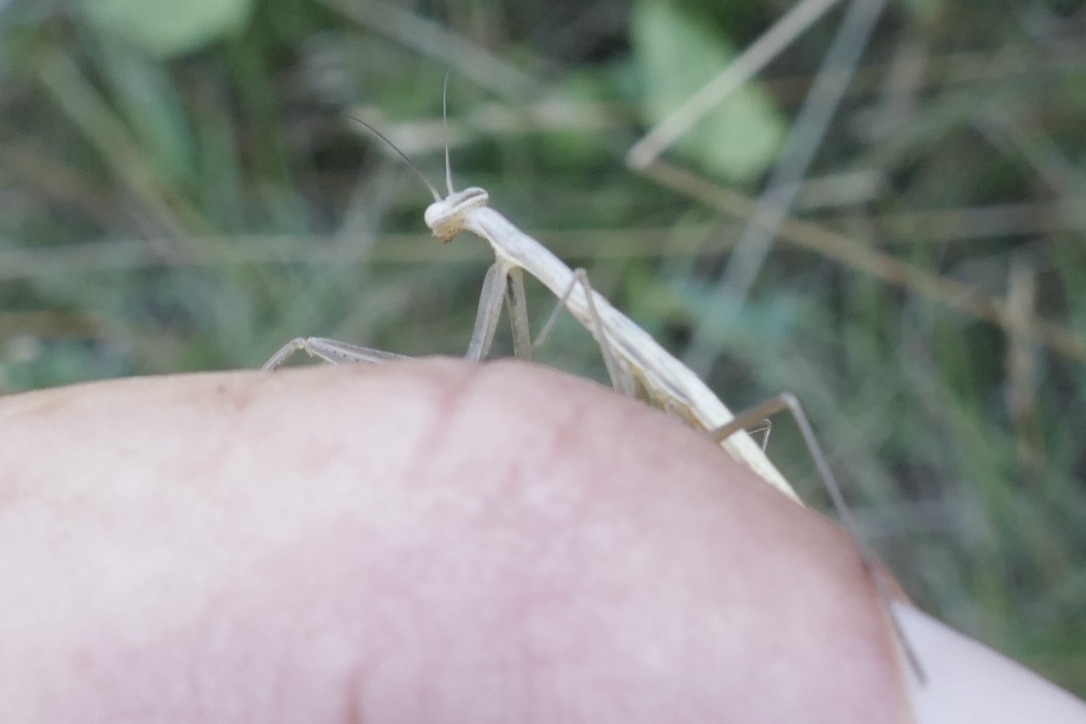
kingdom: Animalia
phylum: Arthropoda
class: Insecta
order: Mantodea
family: Mantidae
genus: Mantis
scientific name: Mantis religiosa
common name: Praying mantis
